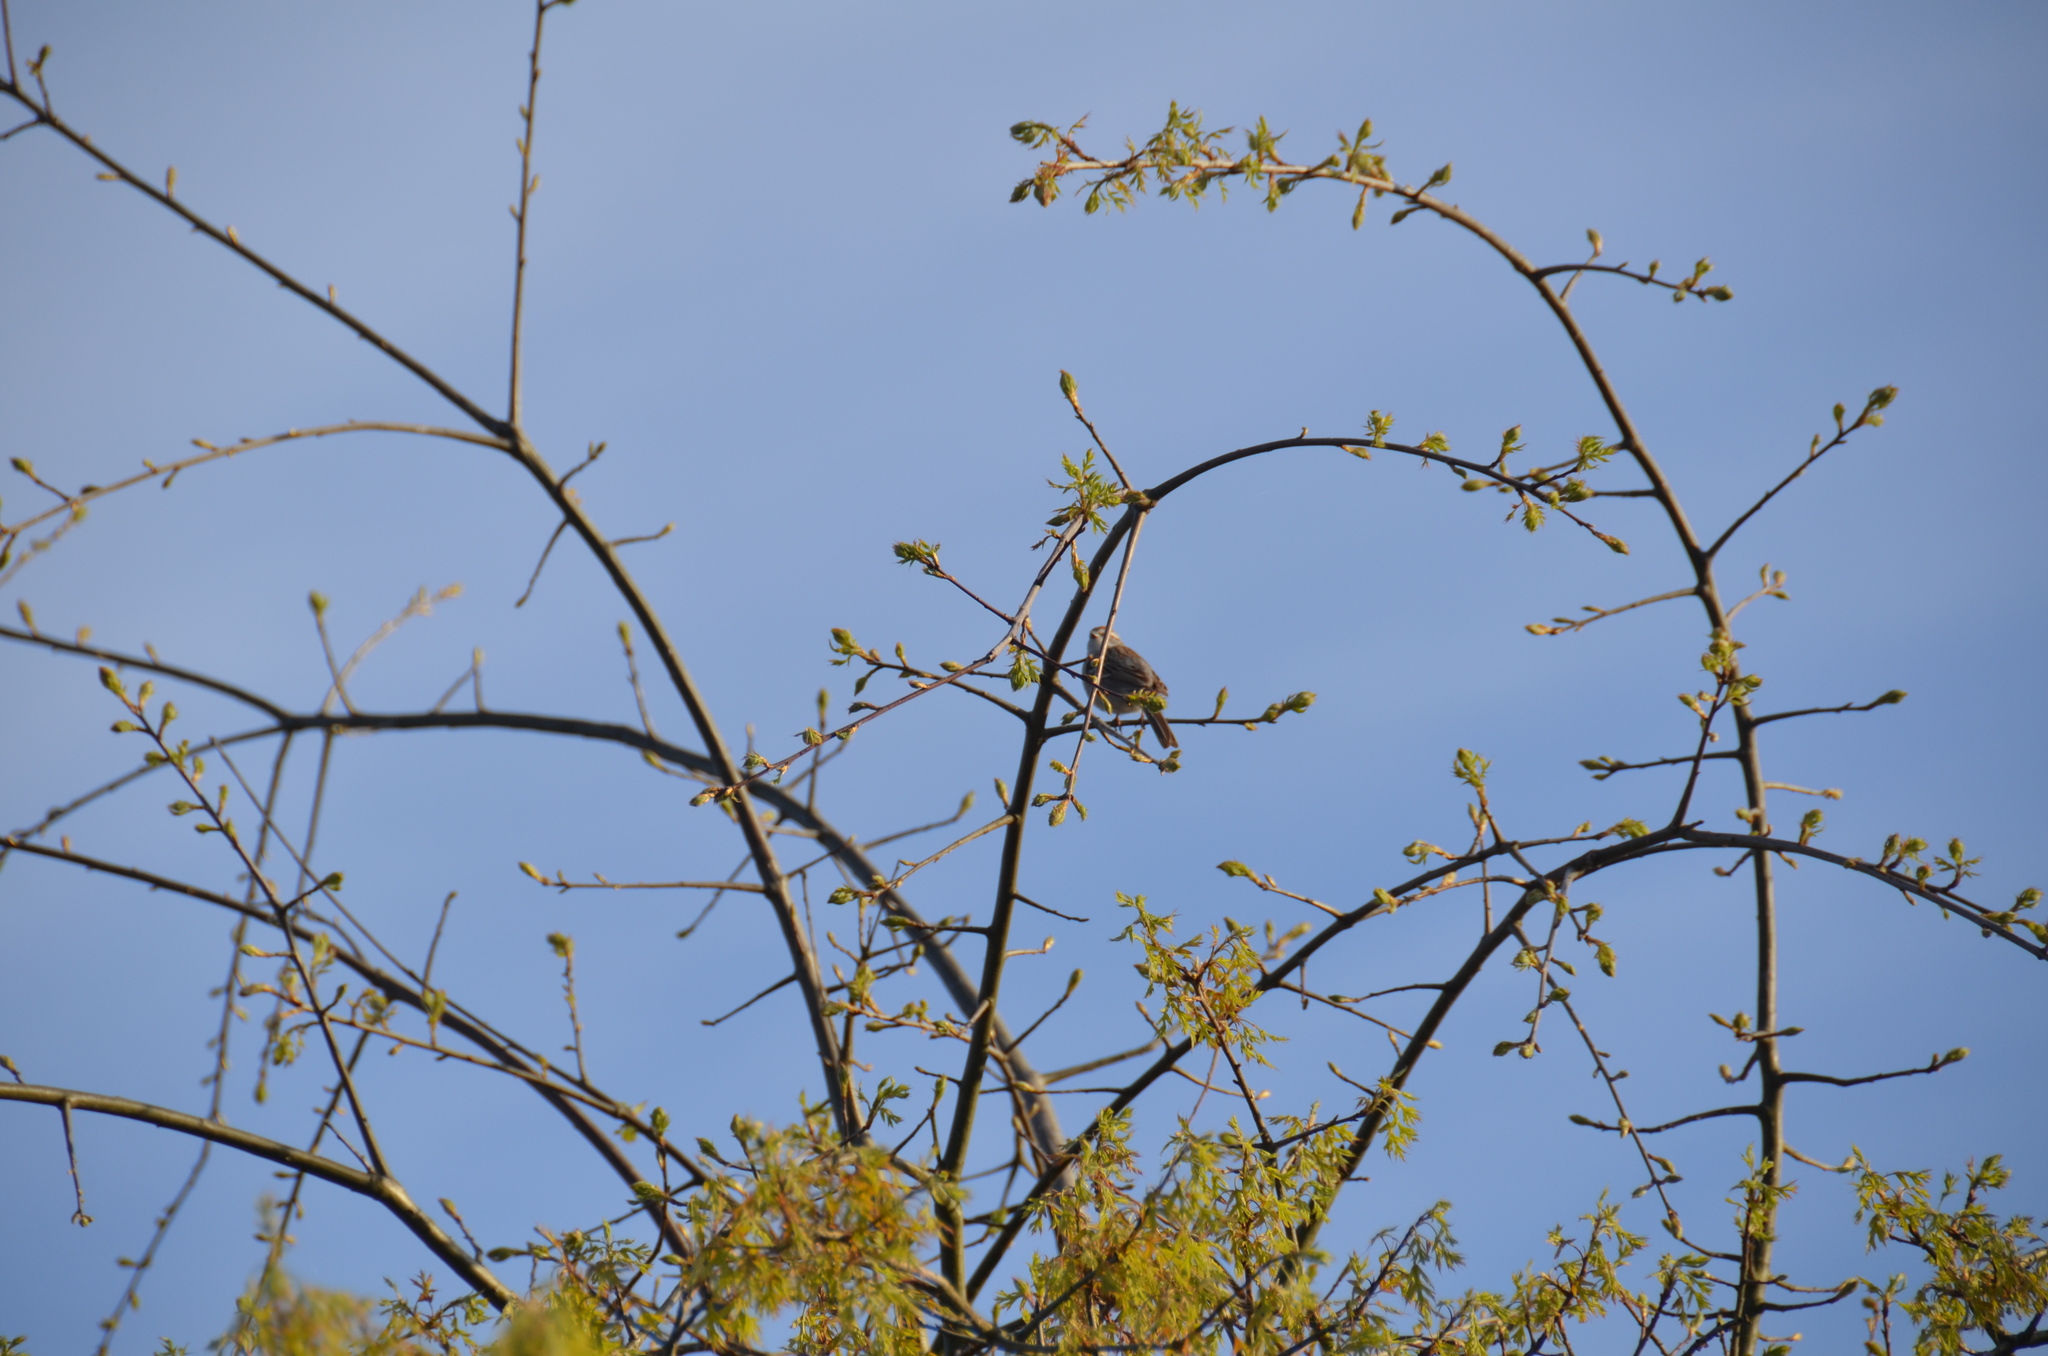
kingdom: Animalia
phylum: Chordata
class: Aves
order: Passeriformes
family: Passerellidae
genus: Spizella
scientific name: Spizella passerina
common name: Chipping sparrow
